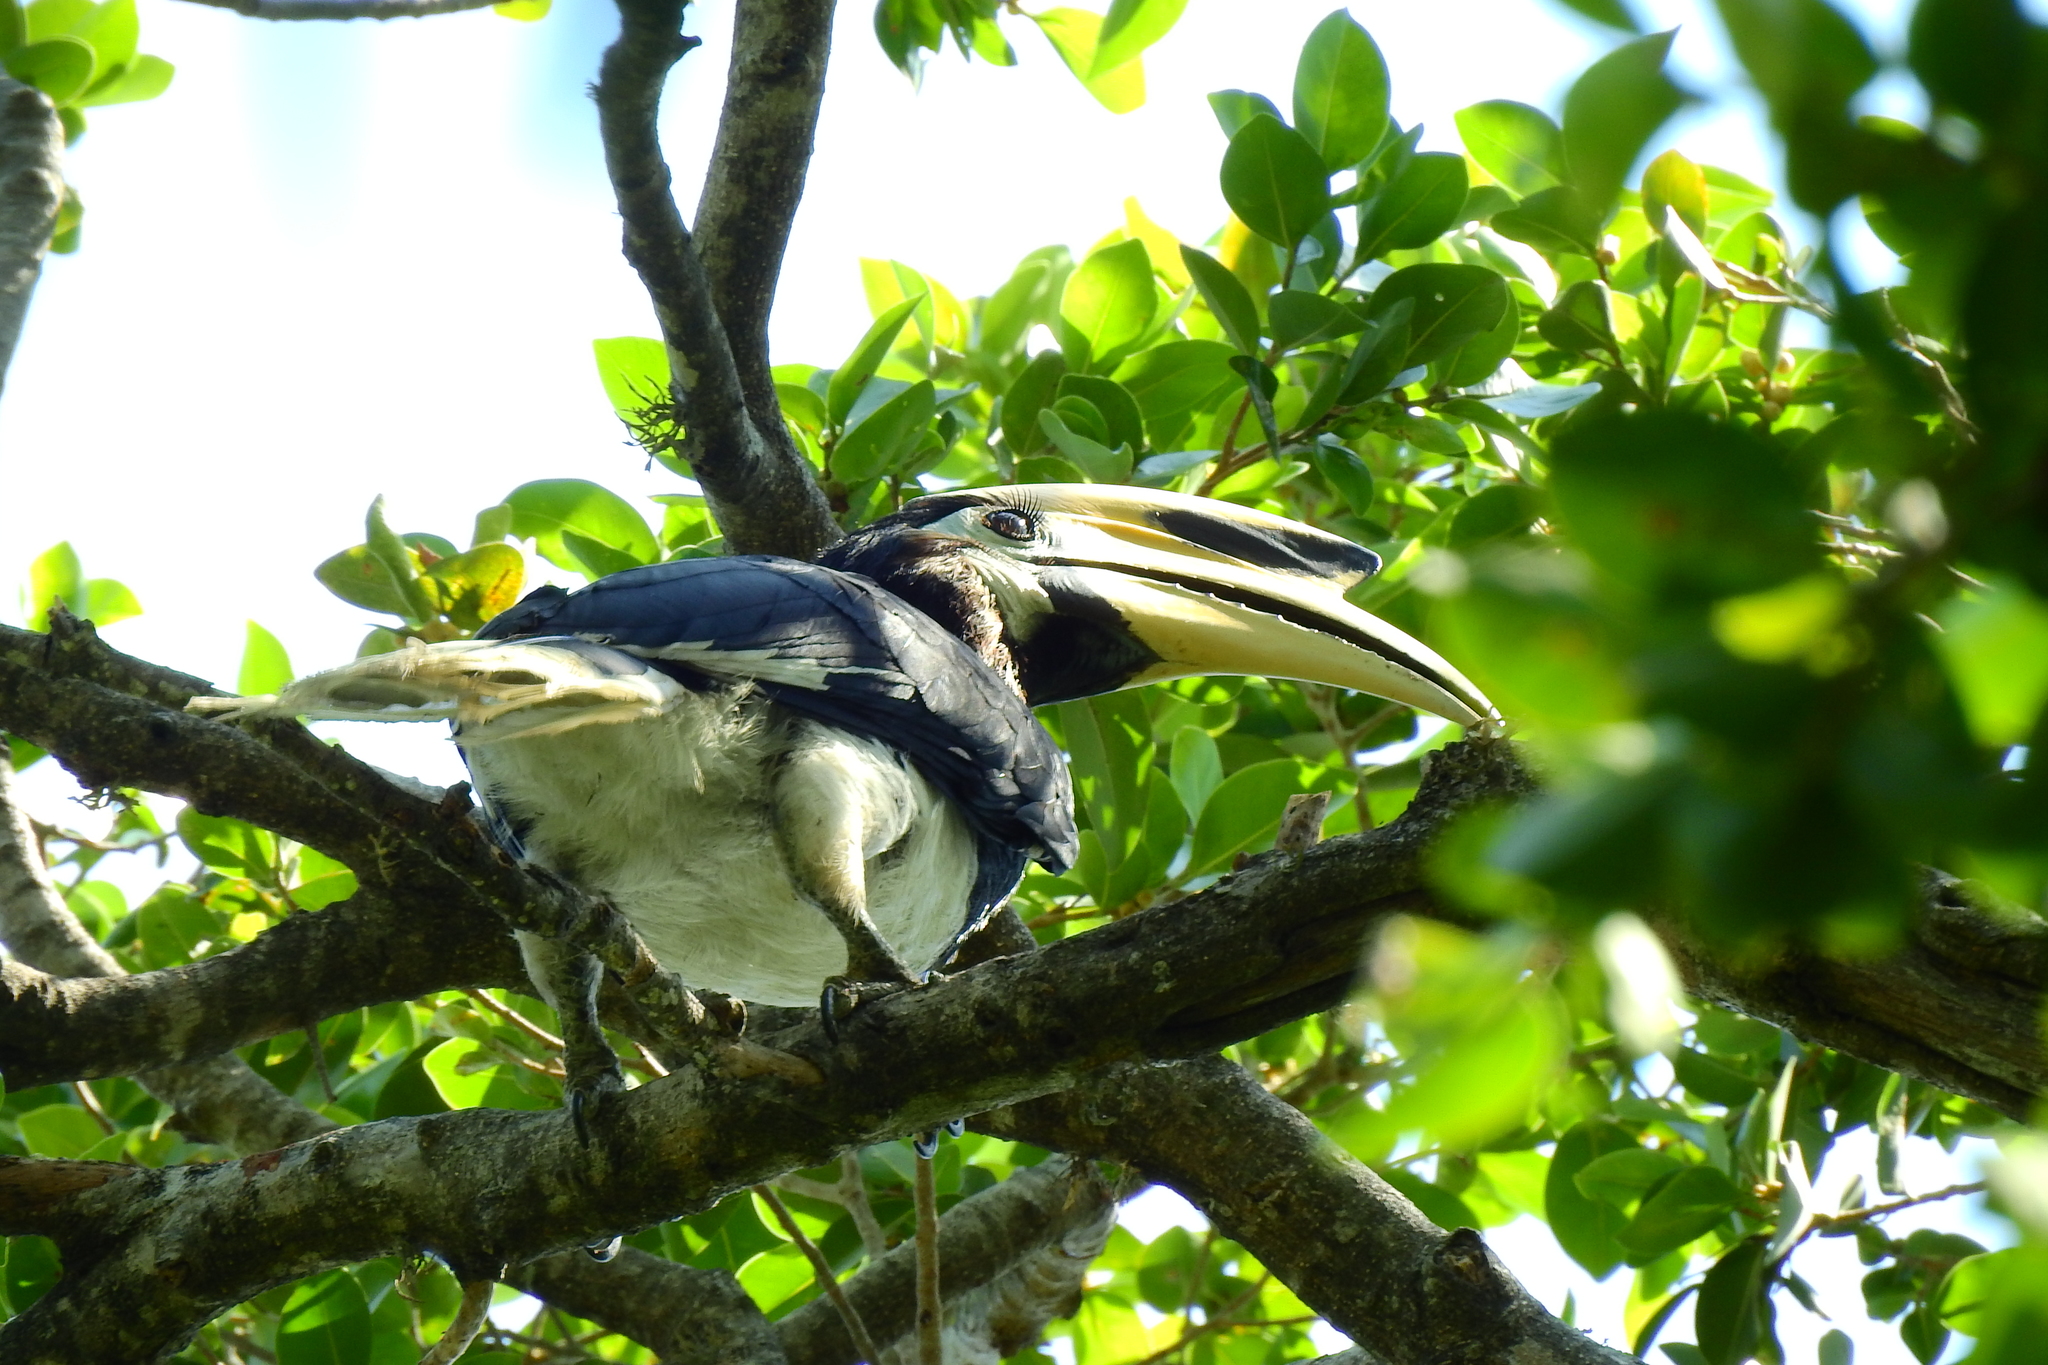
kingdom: Animalia
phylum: Chordata
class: Aves
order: Bucerotiformes
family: Bucerotidae
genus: Anthracoceros
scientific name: Anthracoceros albirostris
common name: Oriental pied-hornbill
